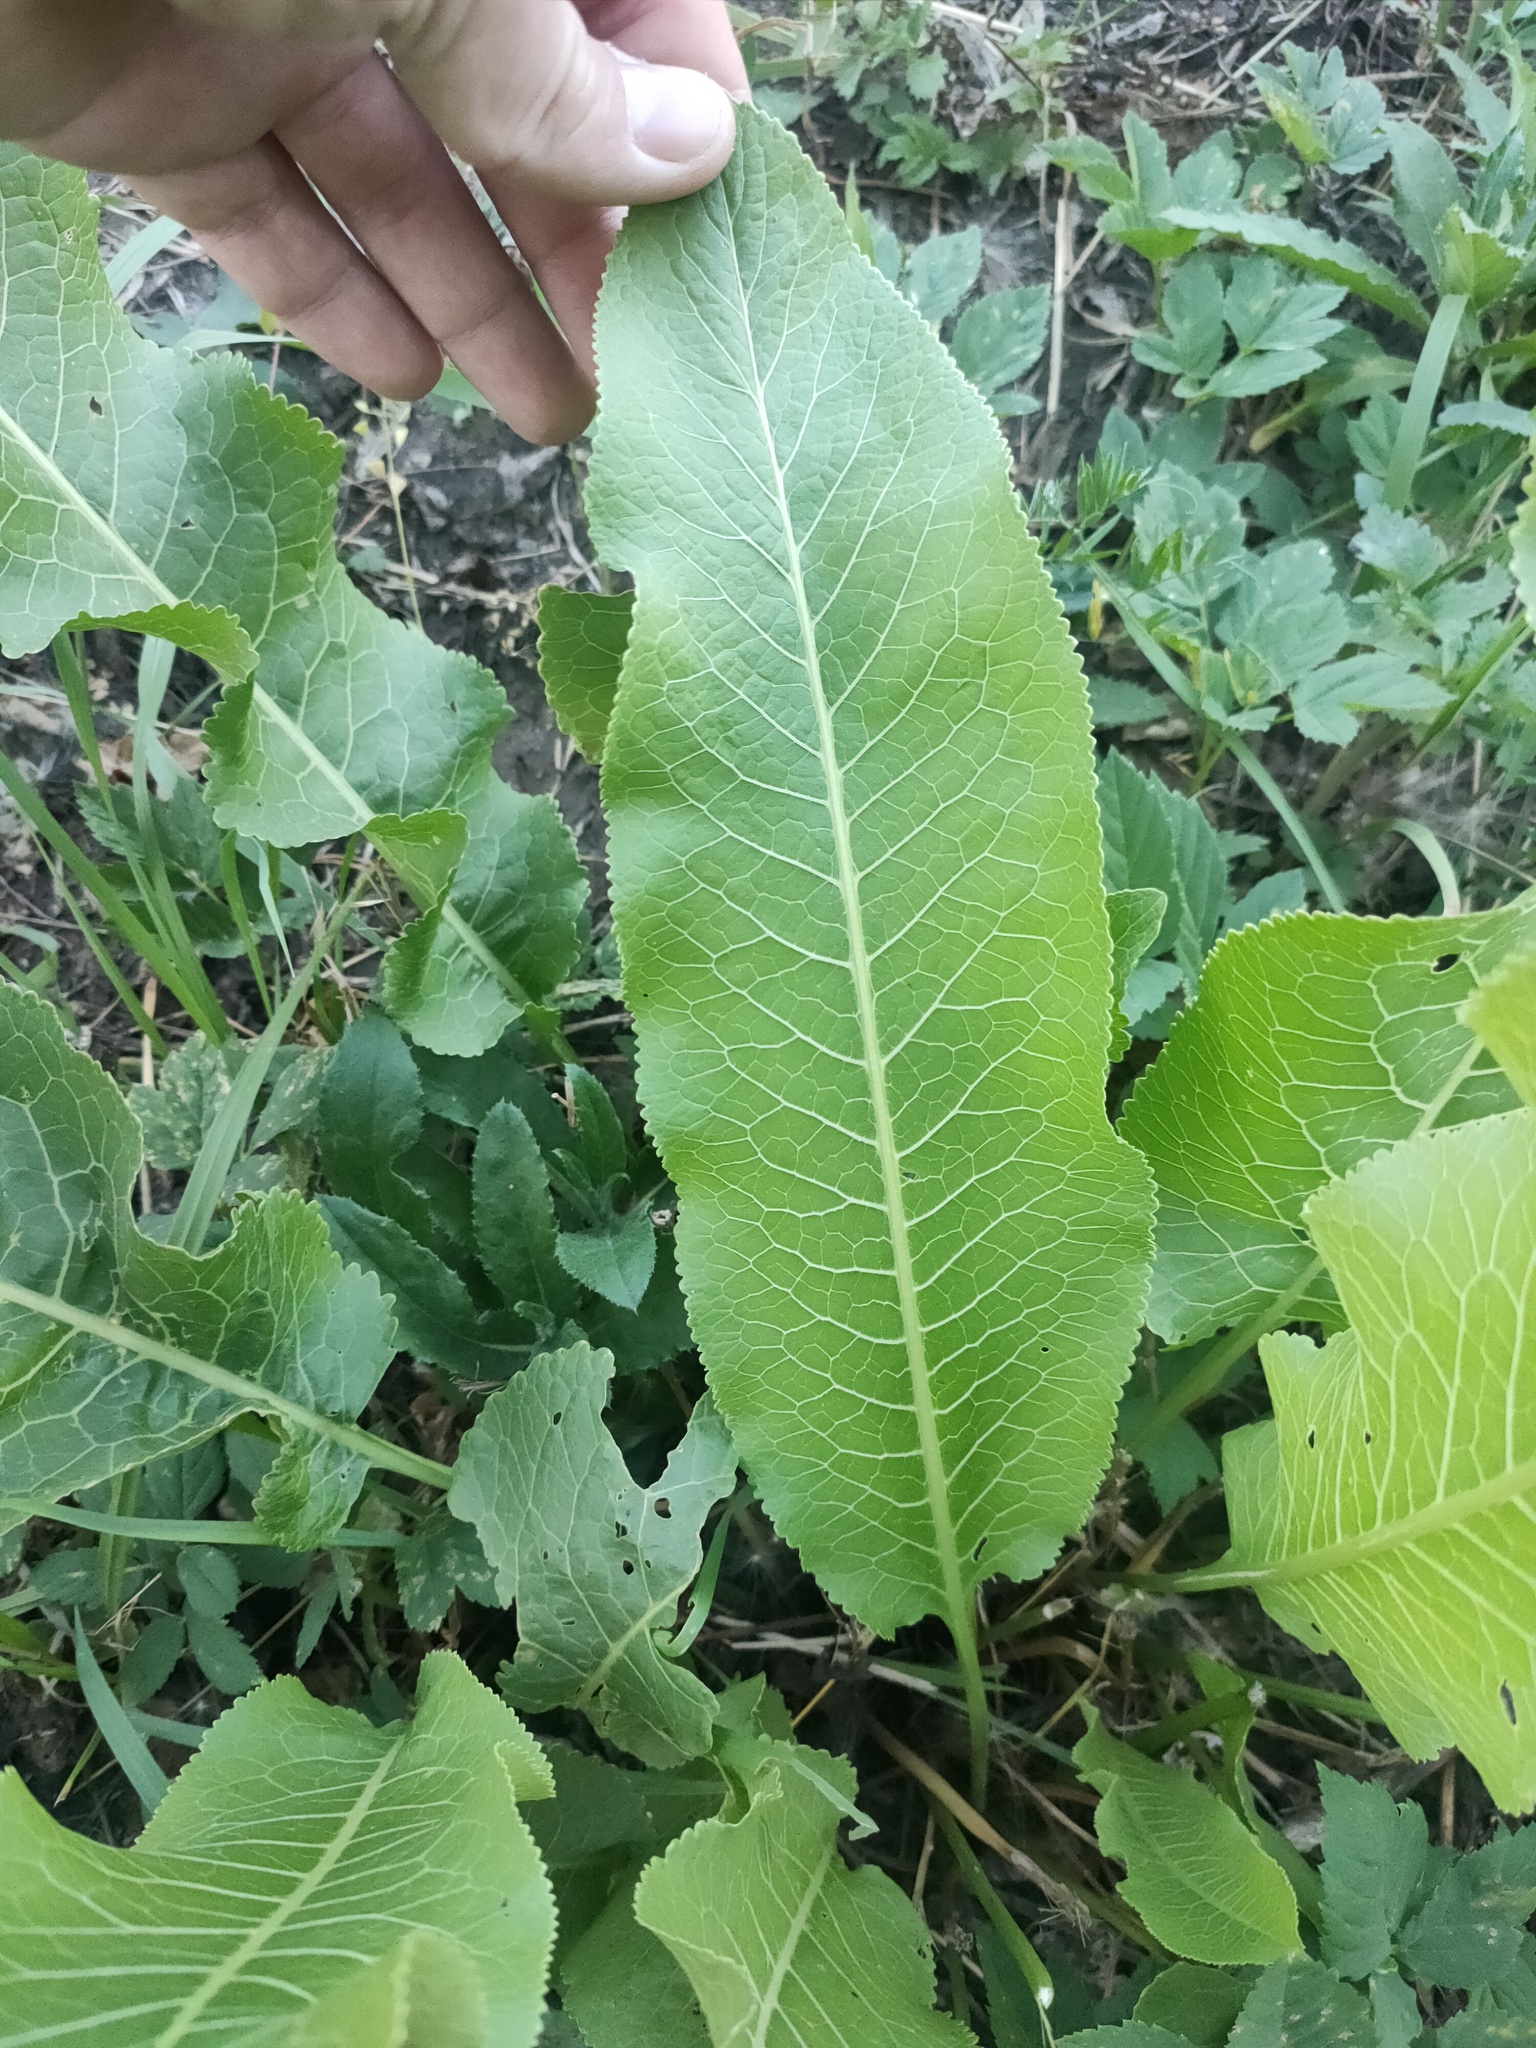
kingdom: Plantae
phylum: Tracheophyta
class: Magnoliopsida
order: Brassicales
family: Brassicaceae
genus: Armoracia
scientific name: Armoracia rusticana
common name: Horseradish
